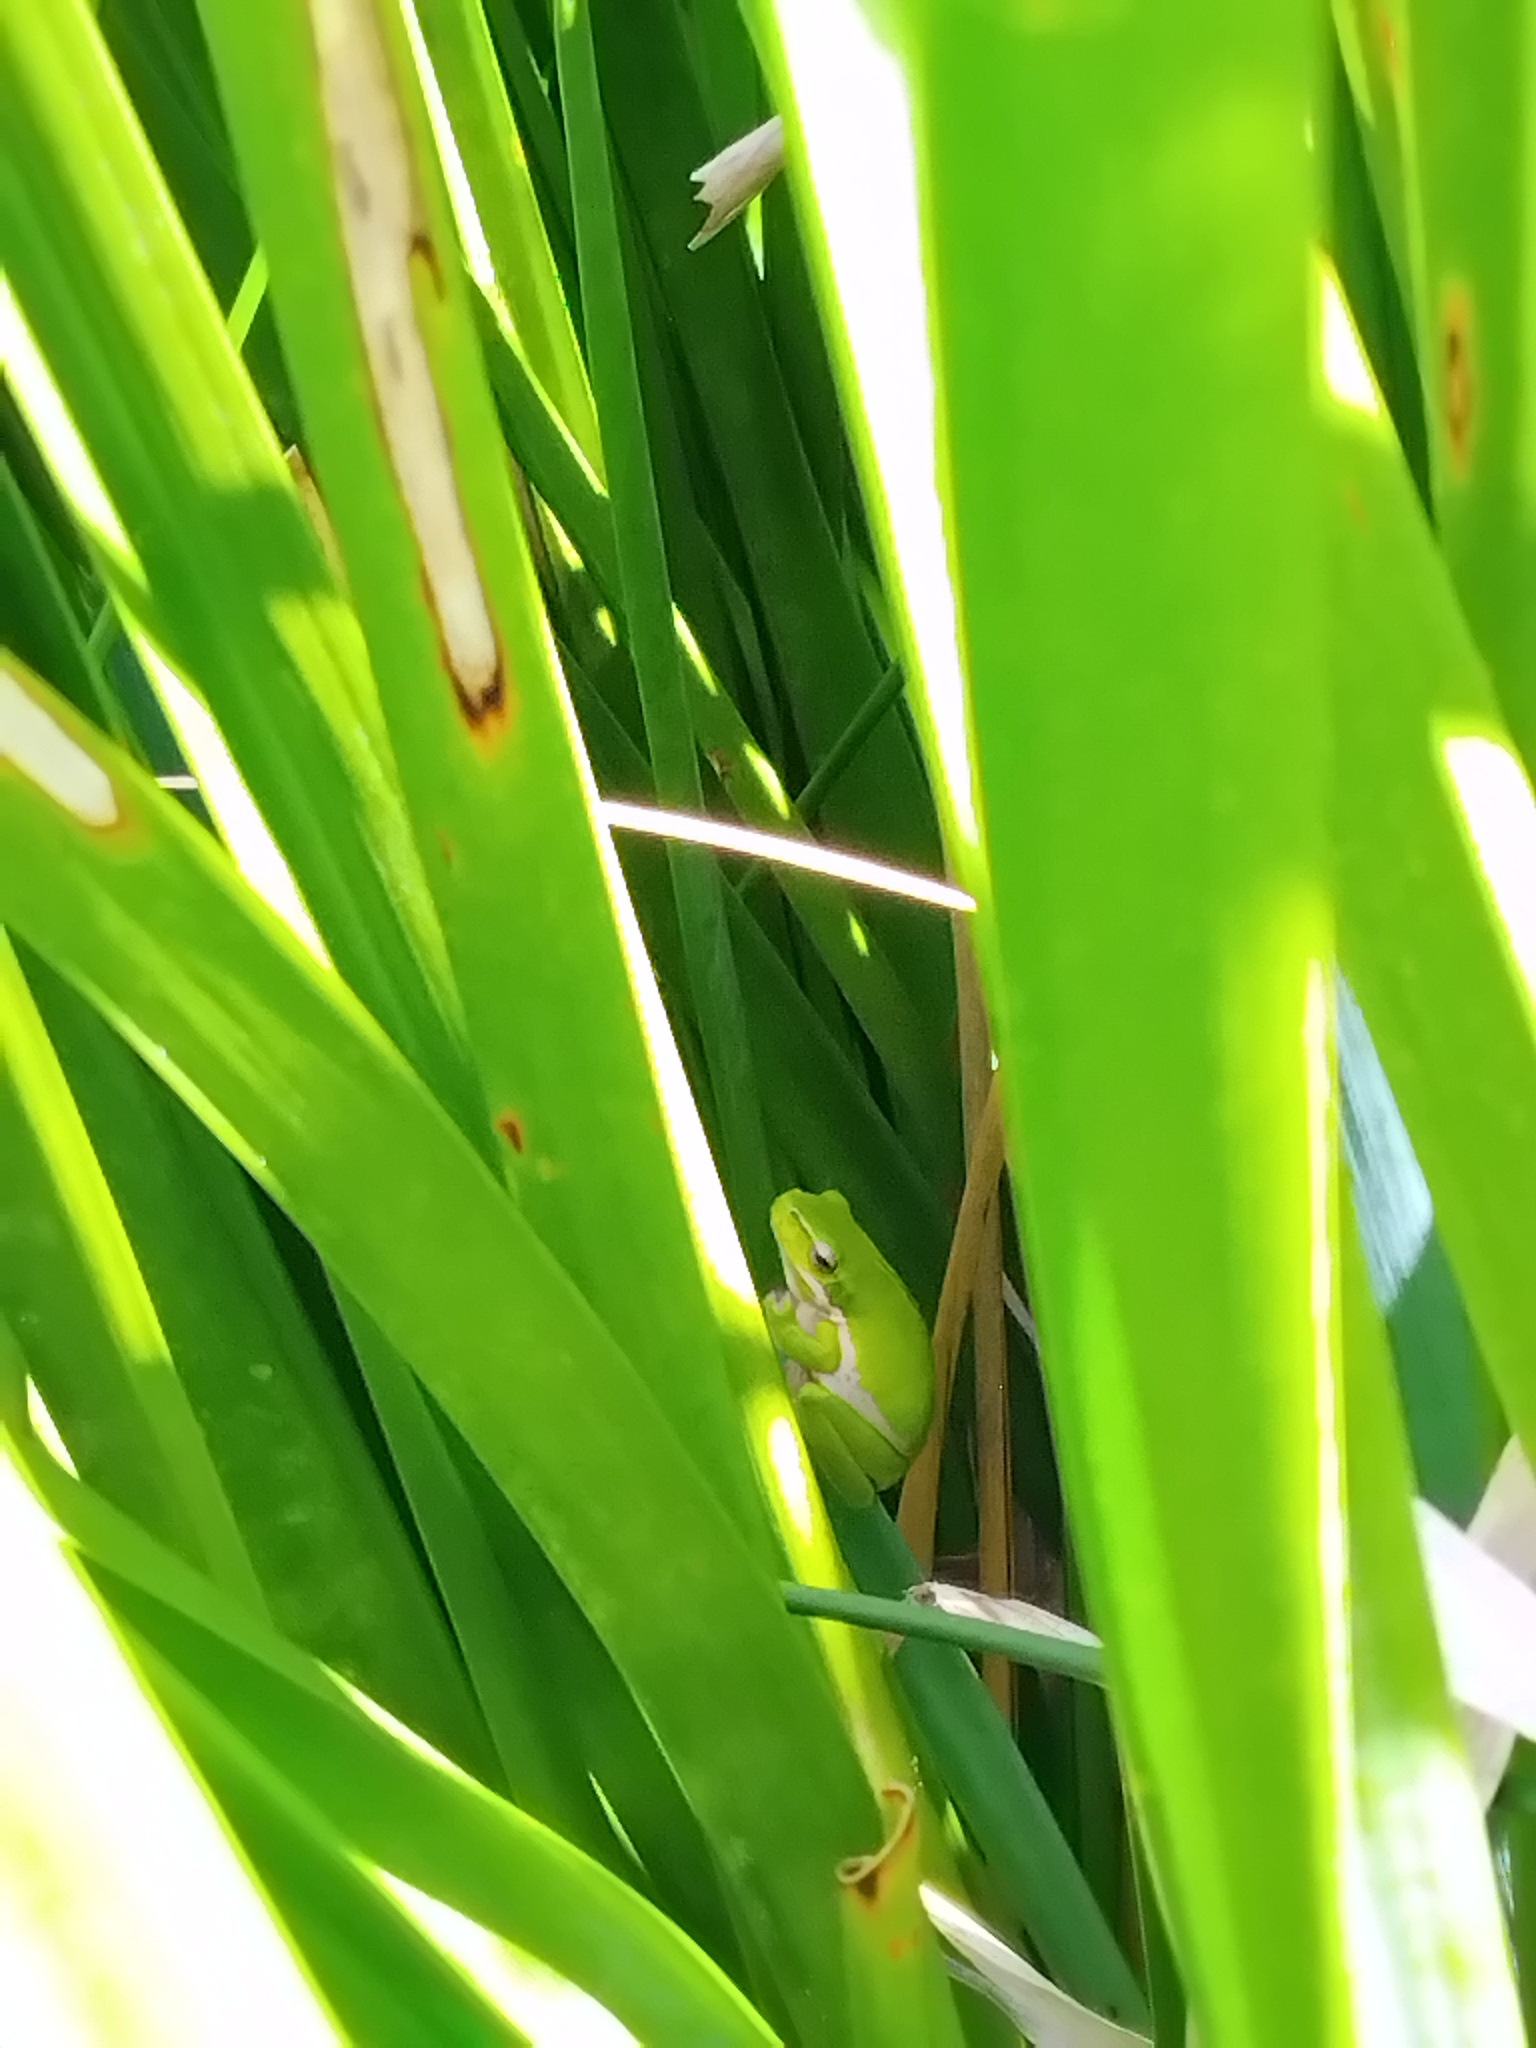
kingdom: Animalia
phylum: Chordata
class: Amphibia
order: Anura
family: Pelodryadidae
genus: Litoria
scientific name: Litoria fallax
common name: Eastern dwarf treefrog
